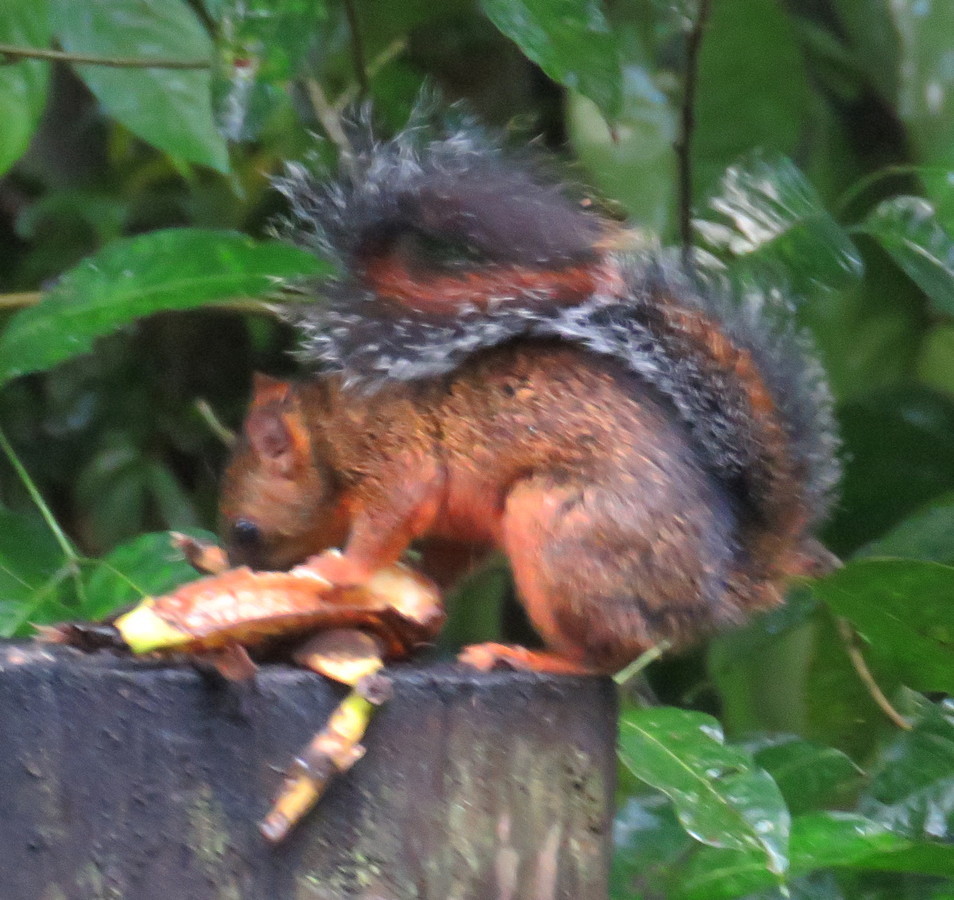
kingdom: Animalia
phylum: Chordata
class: Mammalia
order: Rodentia
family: Sciuridae
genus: Sciurus
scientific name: Sciurus variegatoides
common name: Variegated squirrel
